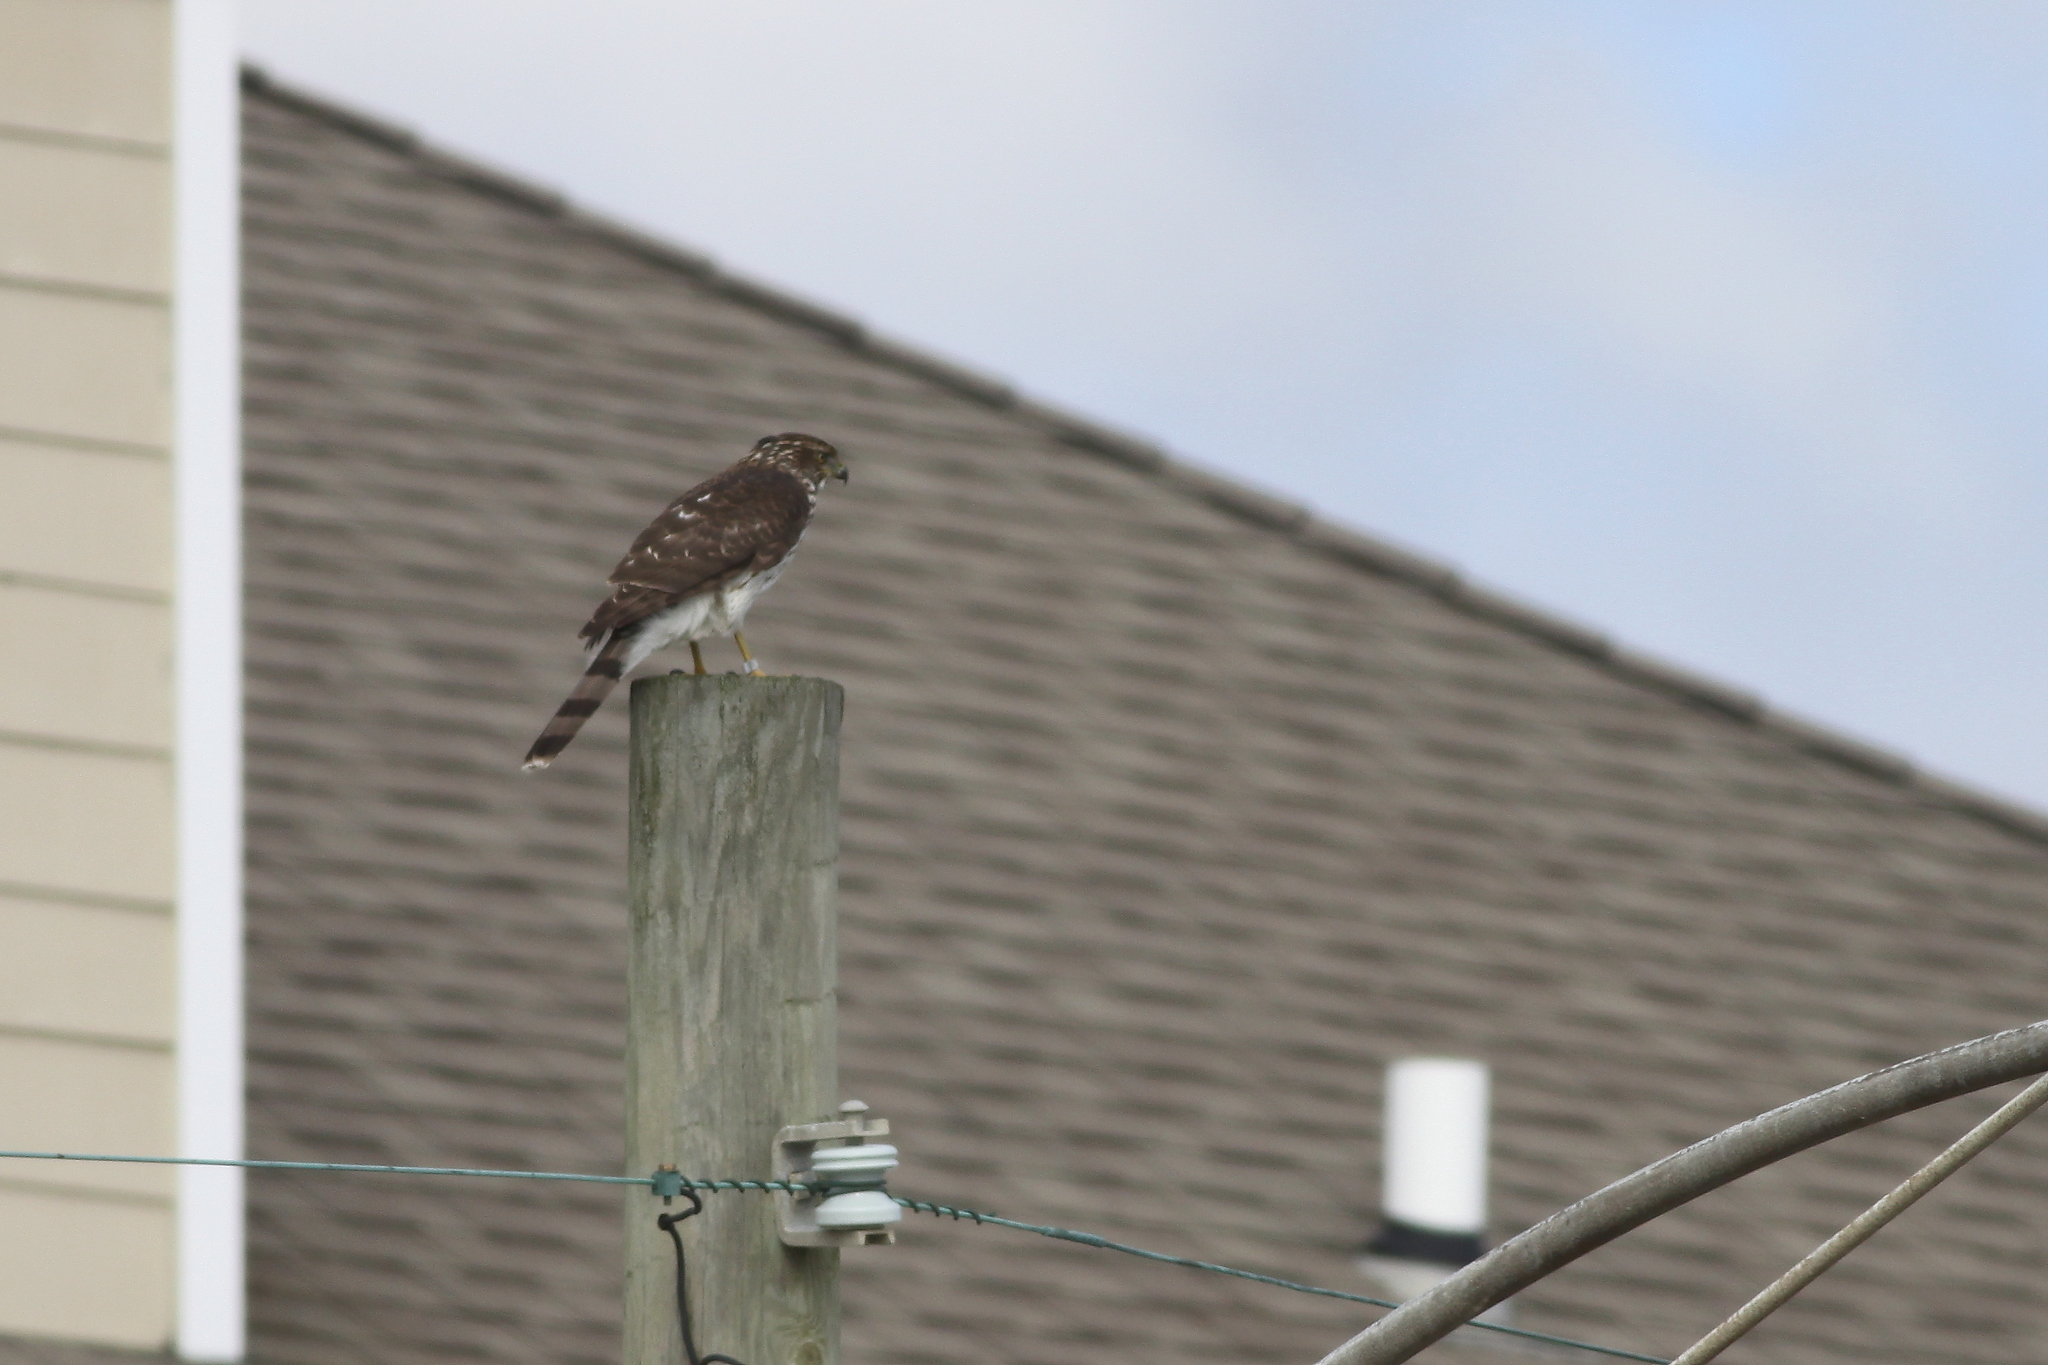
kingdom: Animalia
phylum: Chordata
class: Aves
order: Accipitriformes
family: Accipitridae
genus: Accipiter
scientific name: Accipiter cooperii
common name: Cooper's hawk
